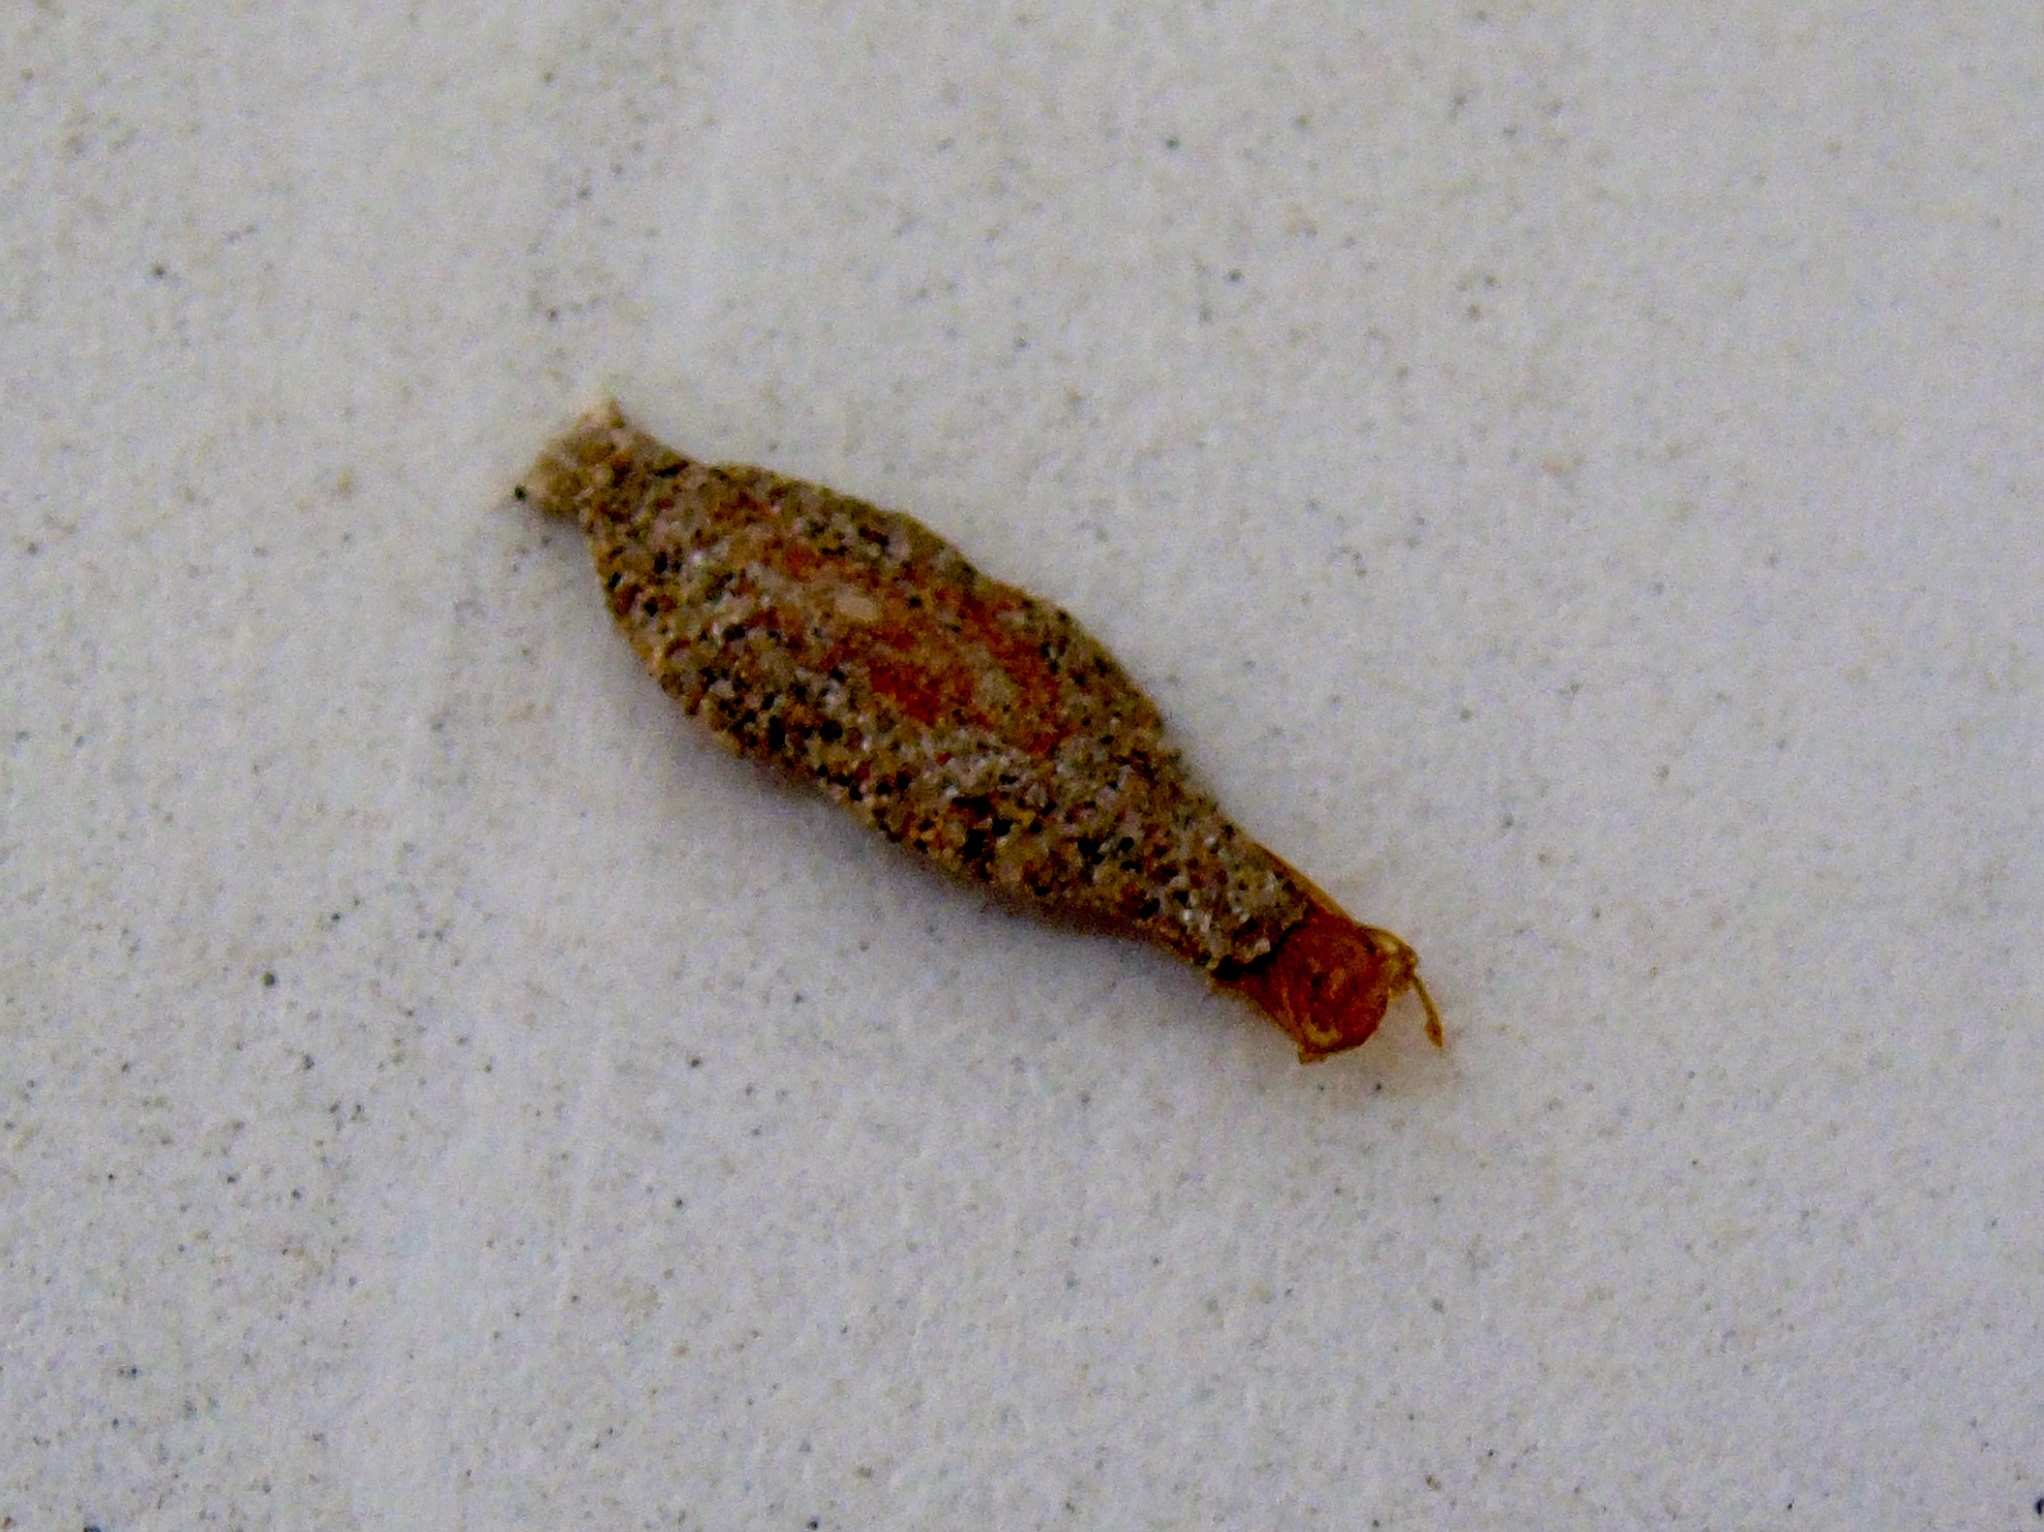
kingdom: Animalia
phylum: Arthropoda
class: Insecta
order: Lepidoptera
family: Tineidae
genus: Phereoeca
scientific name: Phereoeca uterella
